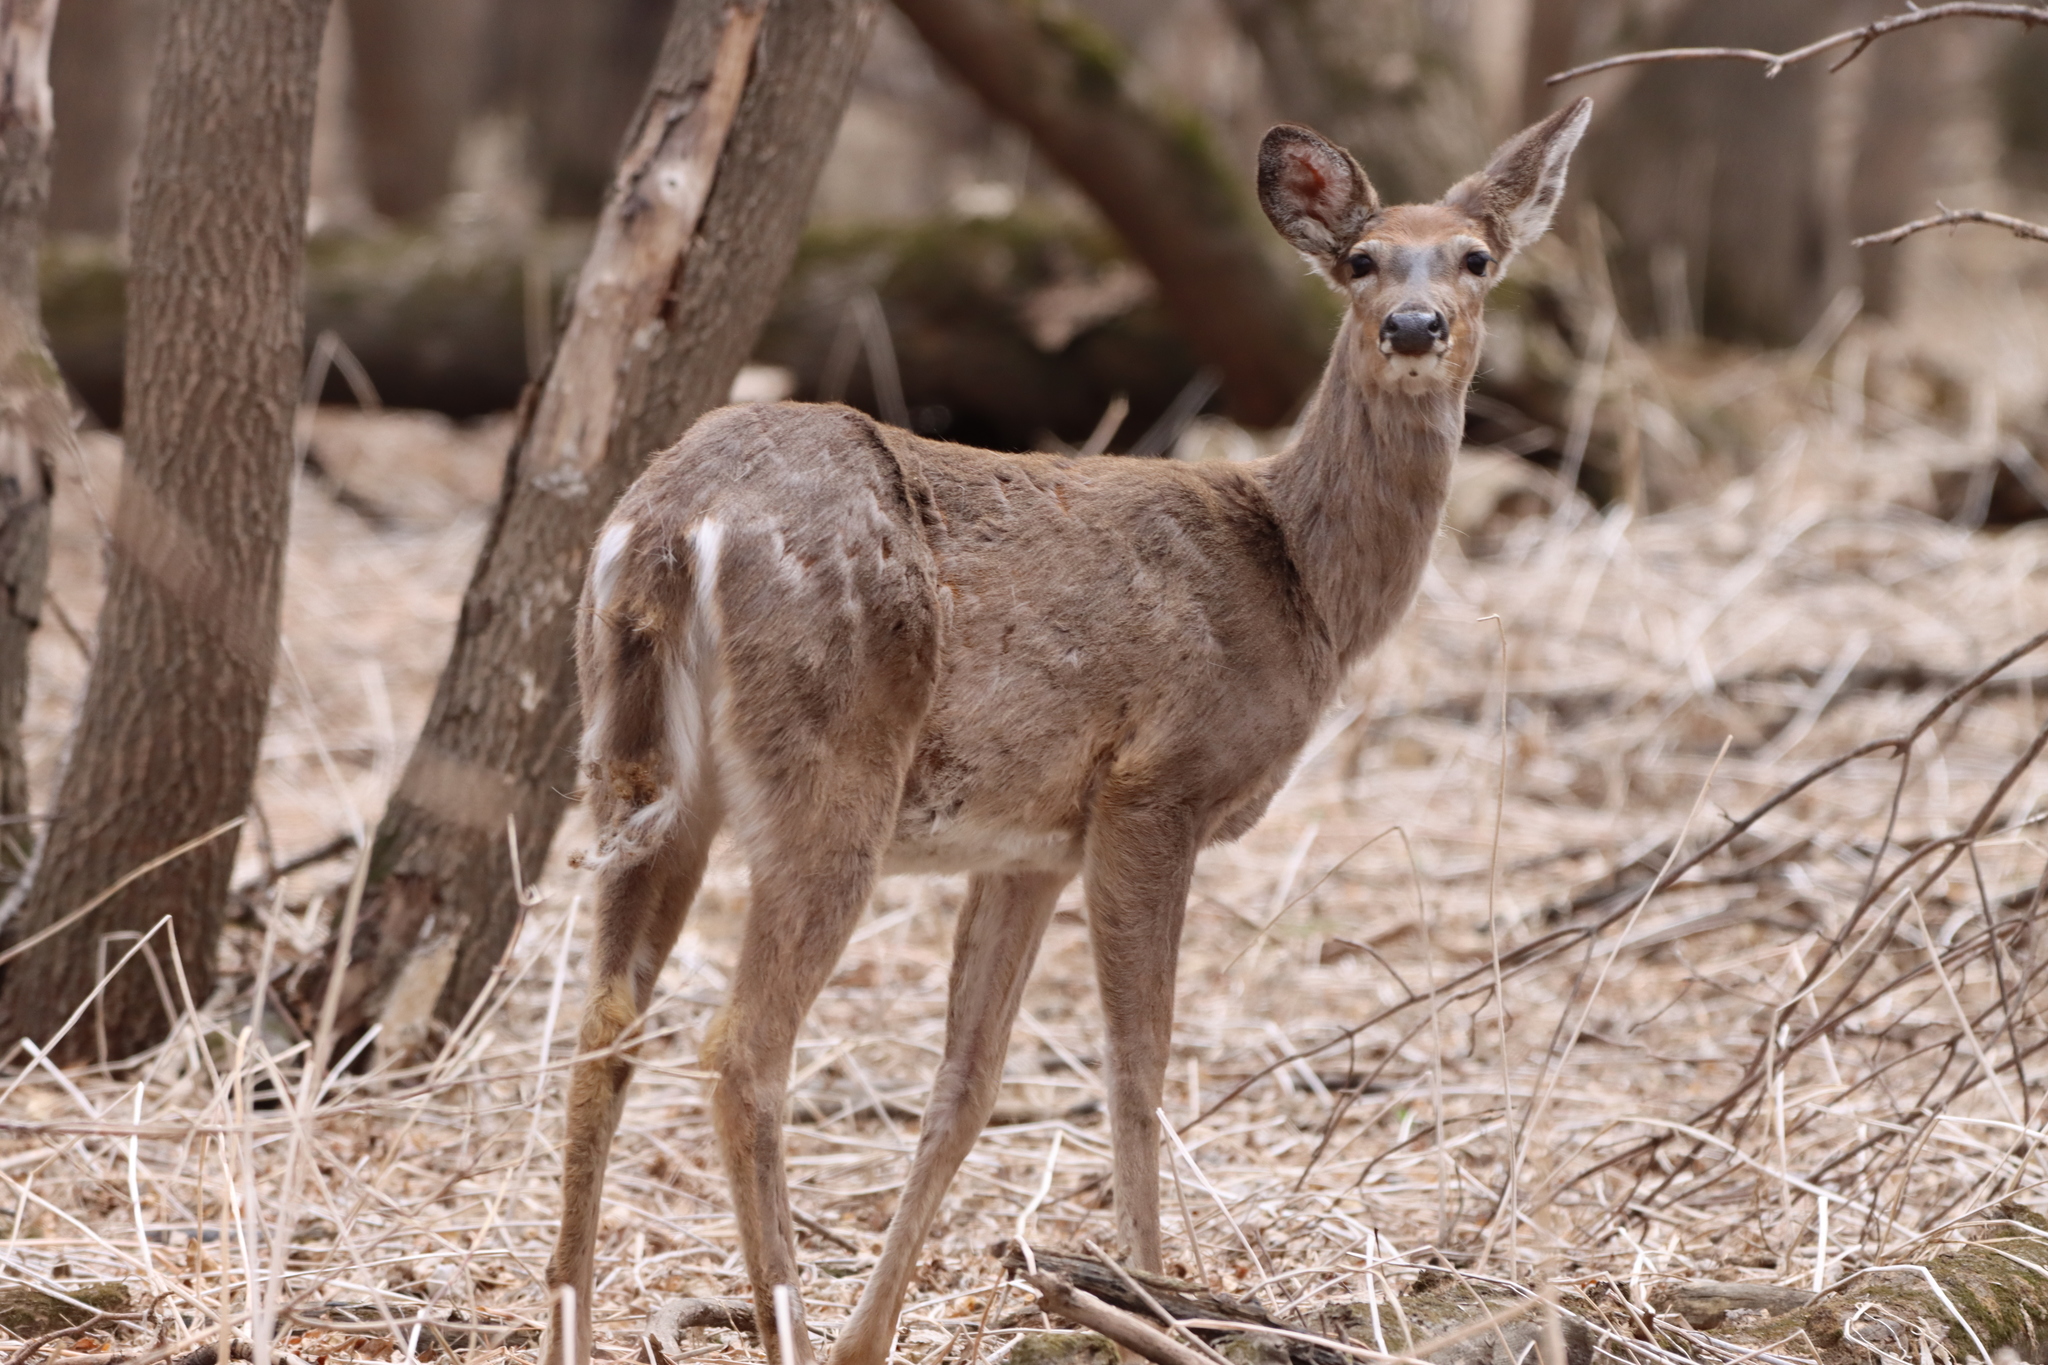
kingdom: Animalia
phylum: Chordata
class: Mammalia
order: Artiodactyla
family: Cervidae
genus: Odocoileus
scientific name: Odocoileus virginianus
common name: White-tailed deer
